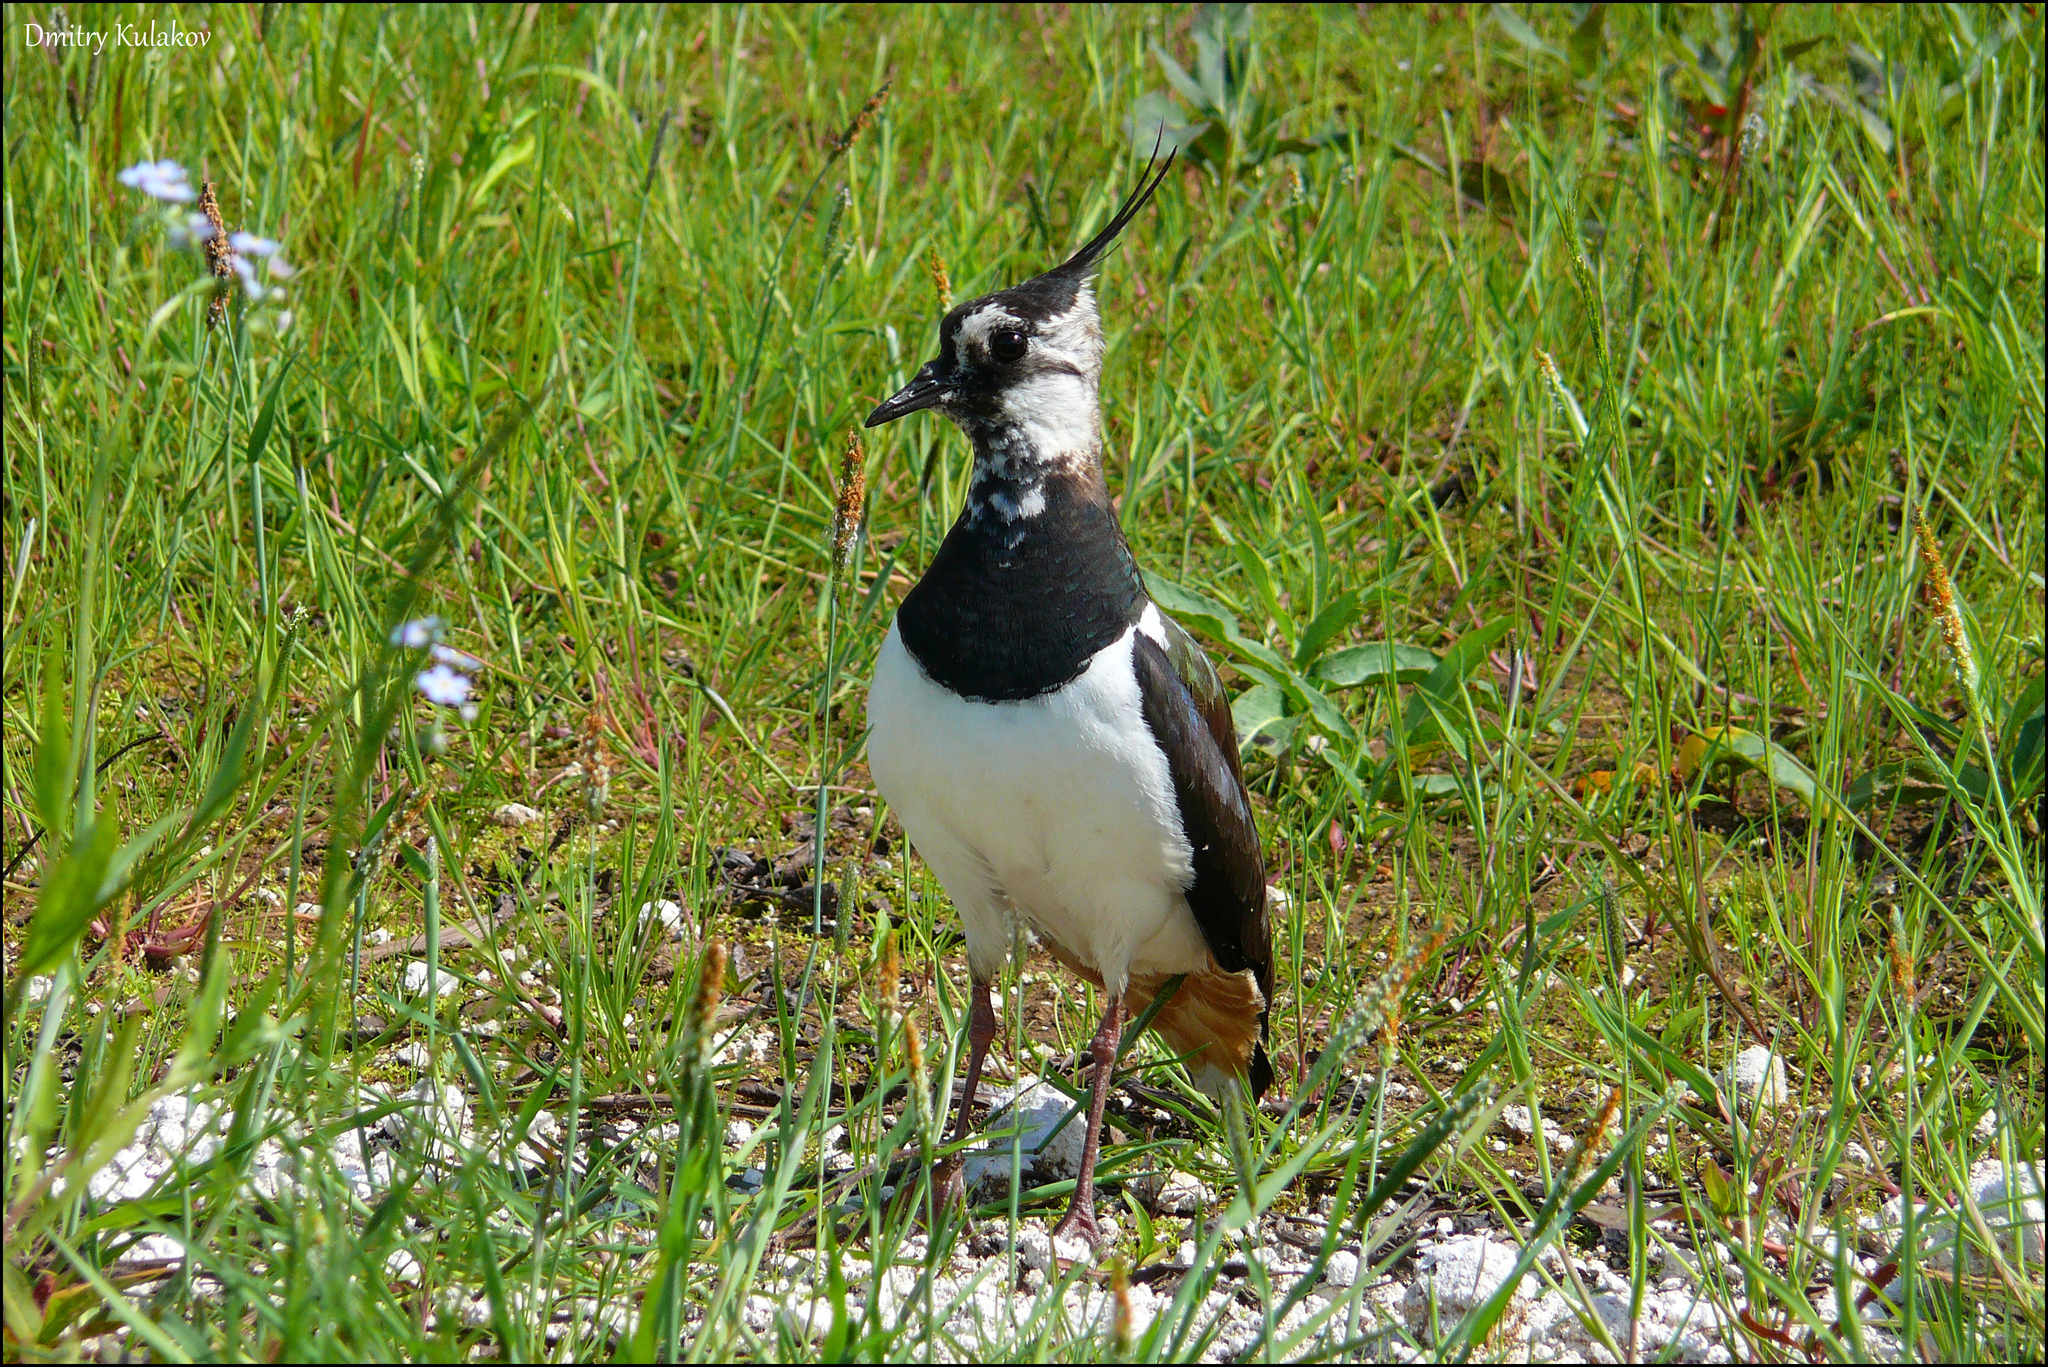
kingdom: Animalia
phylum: Chordata
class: Aves
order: Charadriiformes
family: Charadriidae
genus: Vanellus
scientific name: Vanellus vanellus
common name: Northern lapwing
